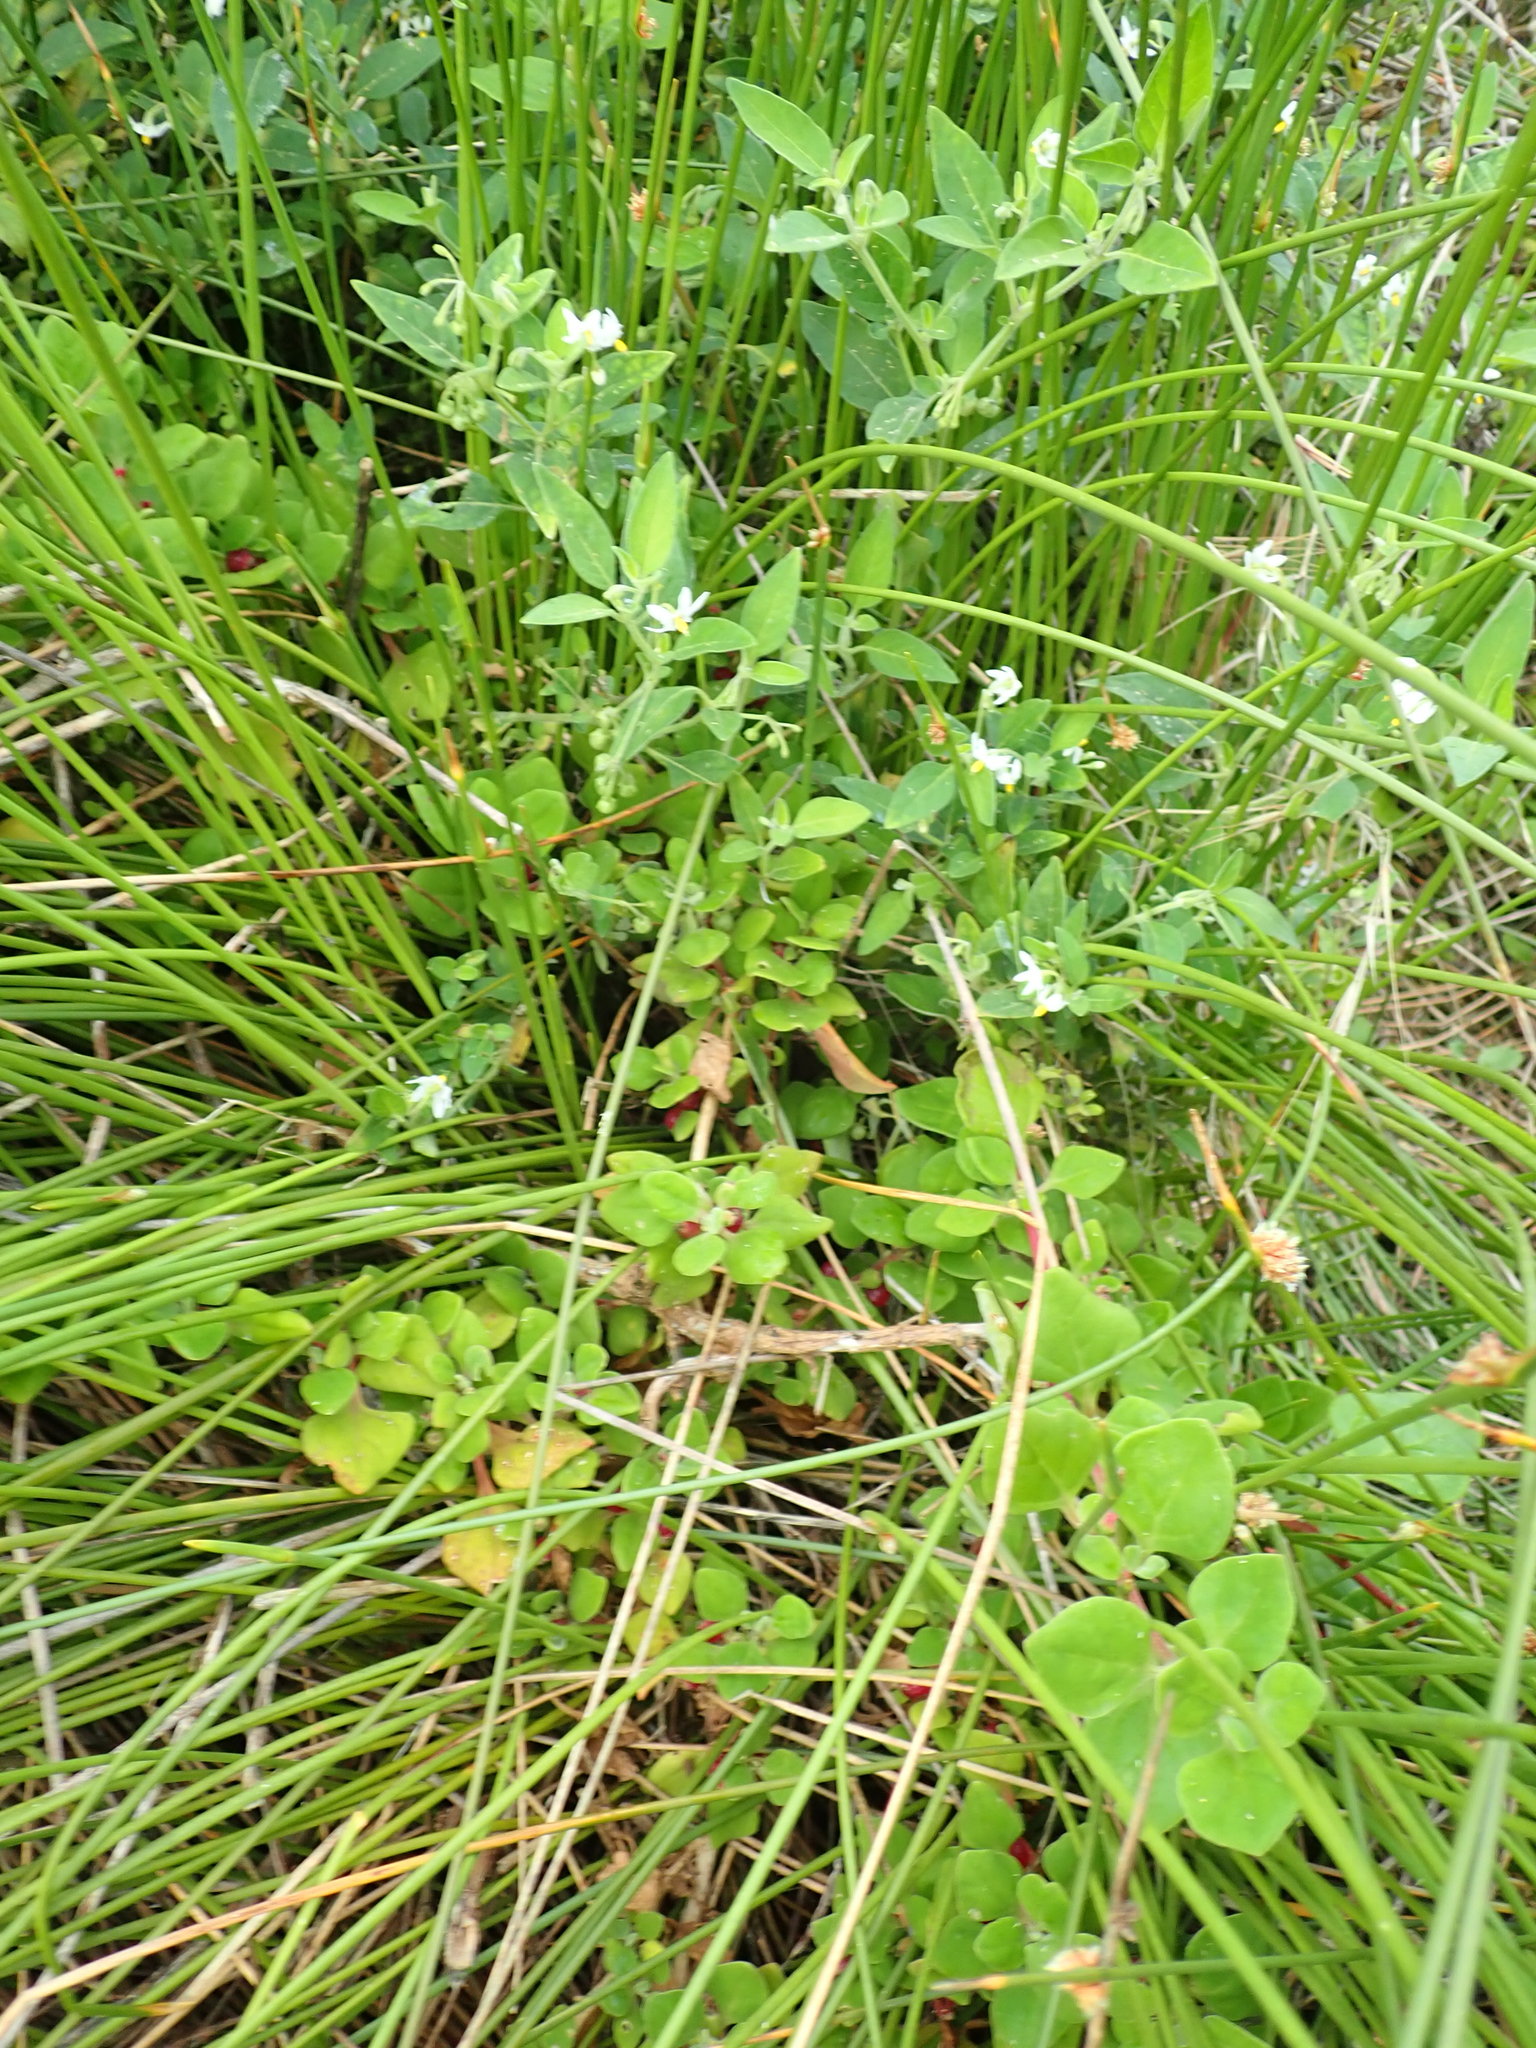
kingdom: Plantae
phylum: Tracheophyta
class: Magnoliopsida
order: Caryophyllales
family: Aizoaceae
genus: Tetragonia
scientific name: Tetragonia implexicoma
